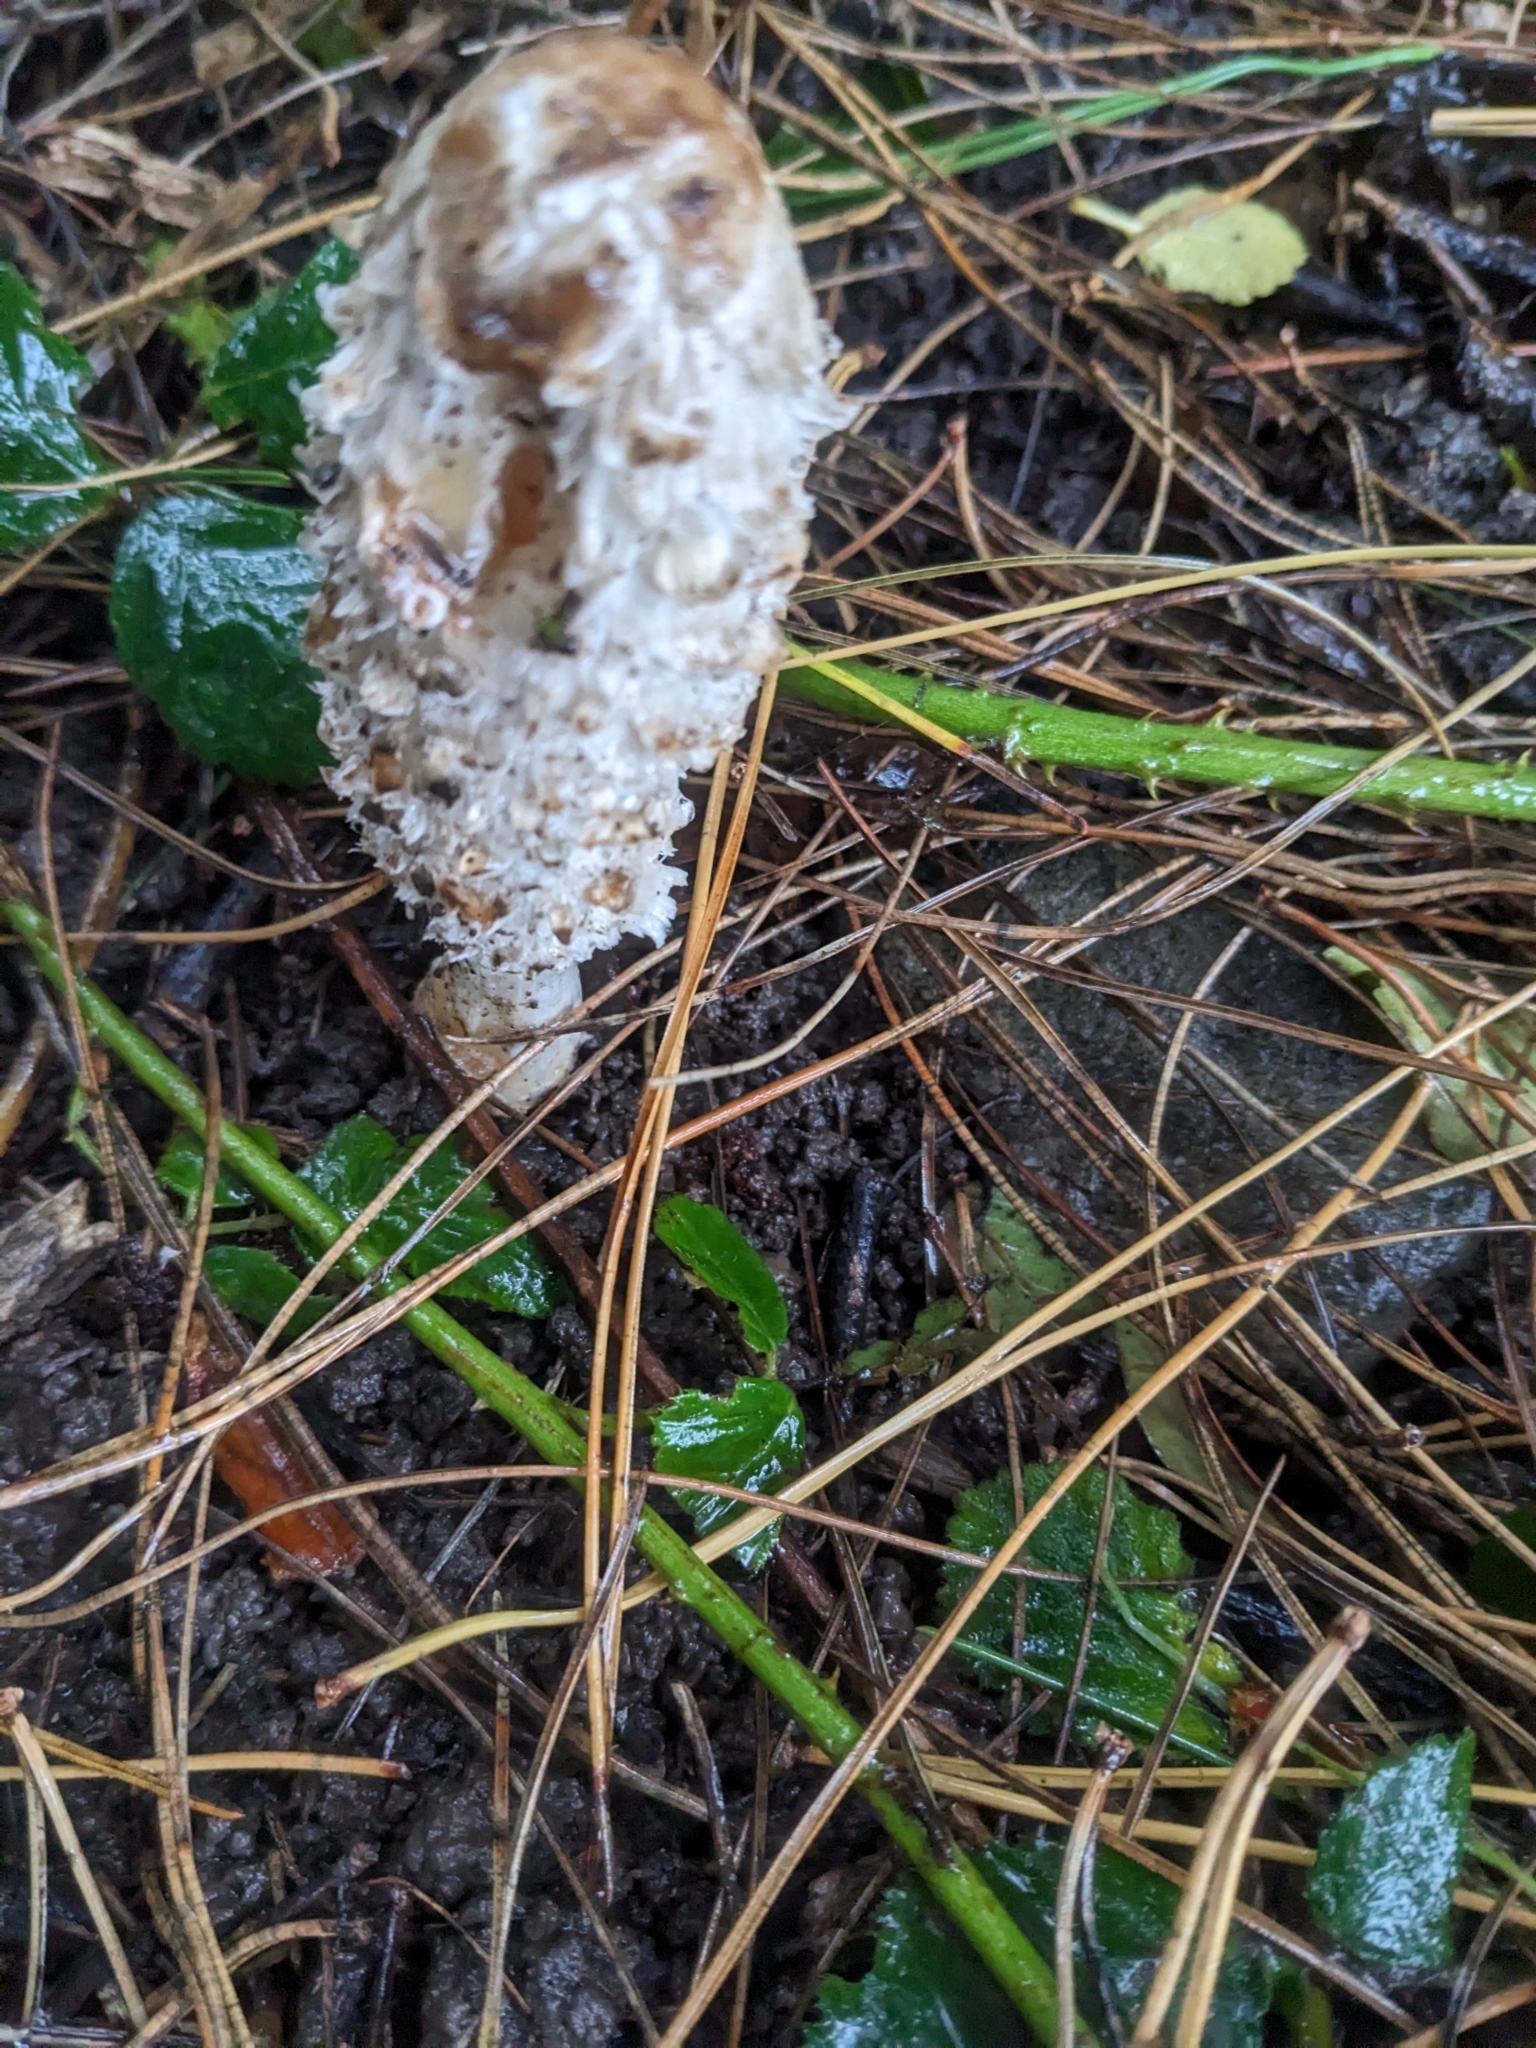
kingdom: Fungi
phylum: Basidiomycota
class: Agaricomycetes
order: Agaricales
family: Agaricaceae
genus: Coprinus
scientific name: Coprinus comatus
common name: Lawyer's wig
